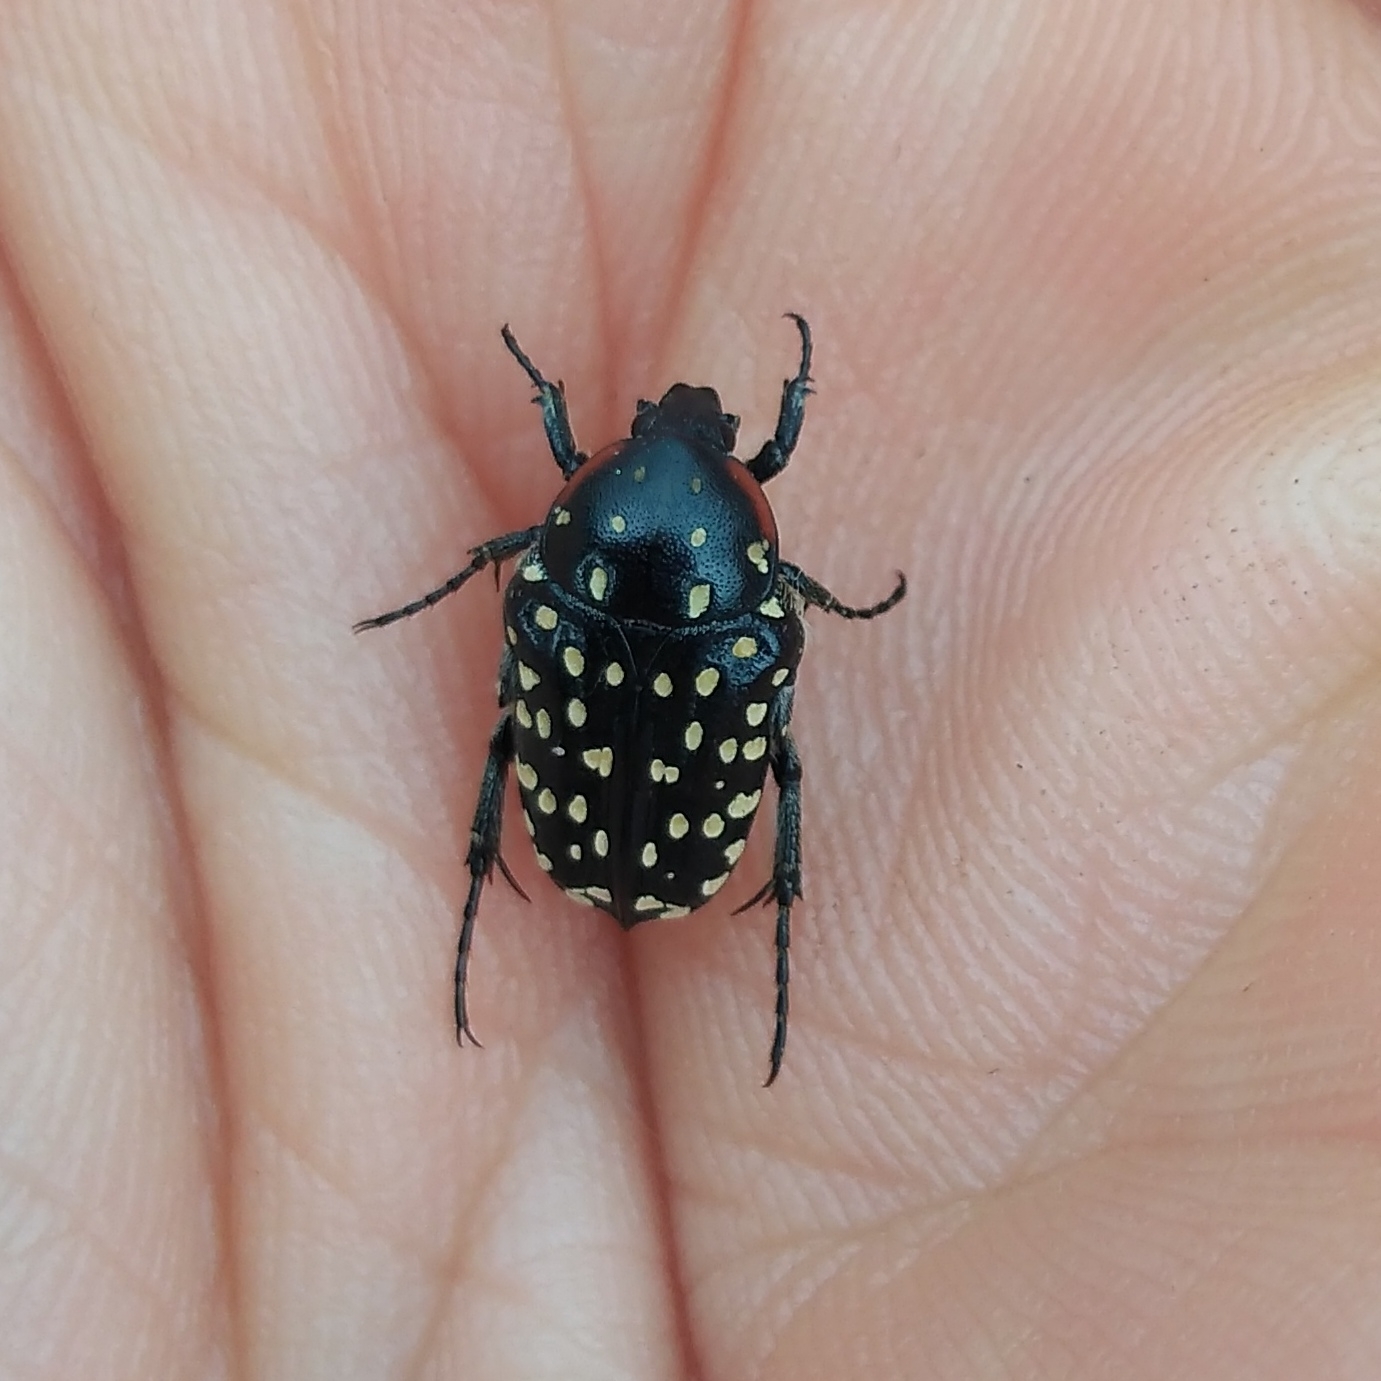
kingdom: Animalia
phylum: Arthropoda
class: Insecta
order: Coleoptera
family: Scarabaeidae
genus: Oxythyrea
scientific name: Oxythyrea
